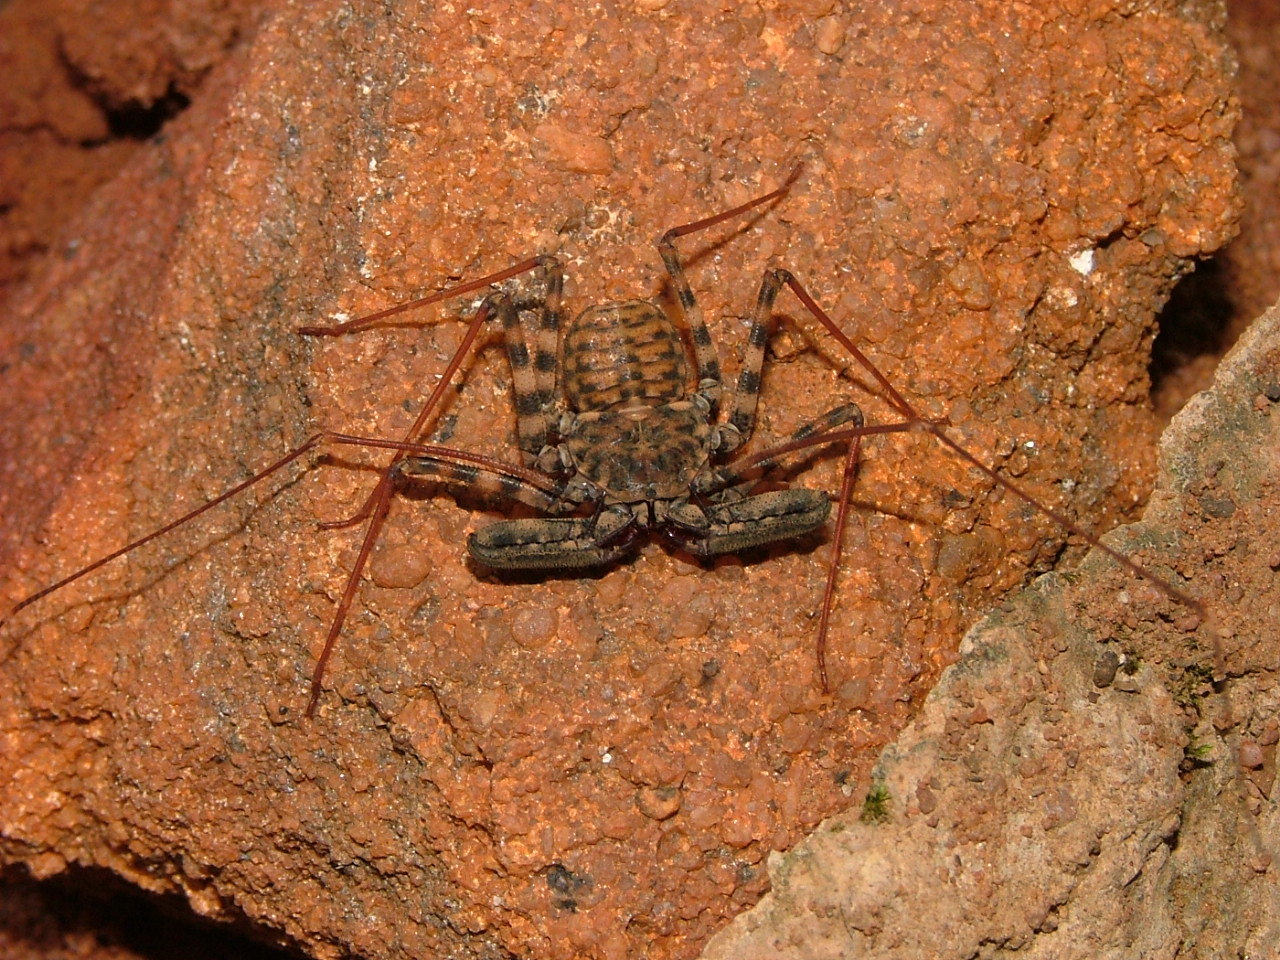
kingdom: Animalia
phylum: Arthropoda
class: Arachnida
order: Amblypygi
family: Phrynichidae
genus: Damon
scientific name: Damon variegatus
